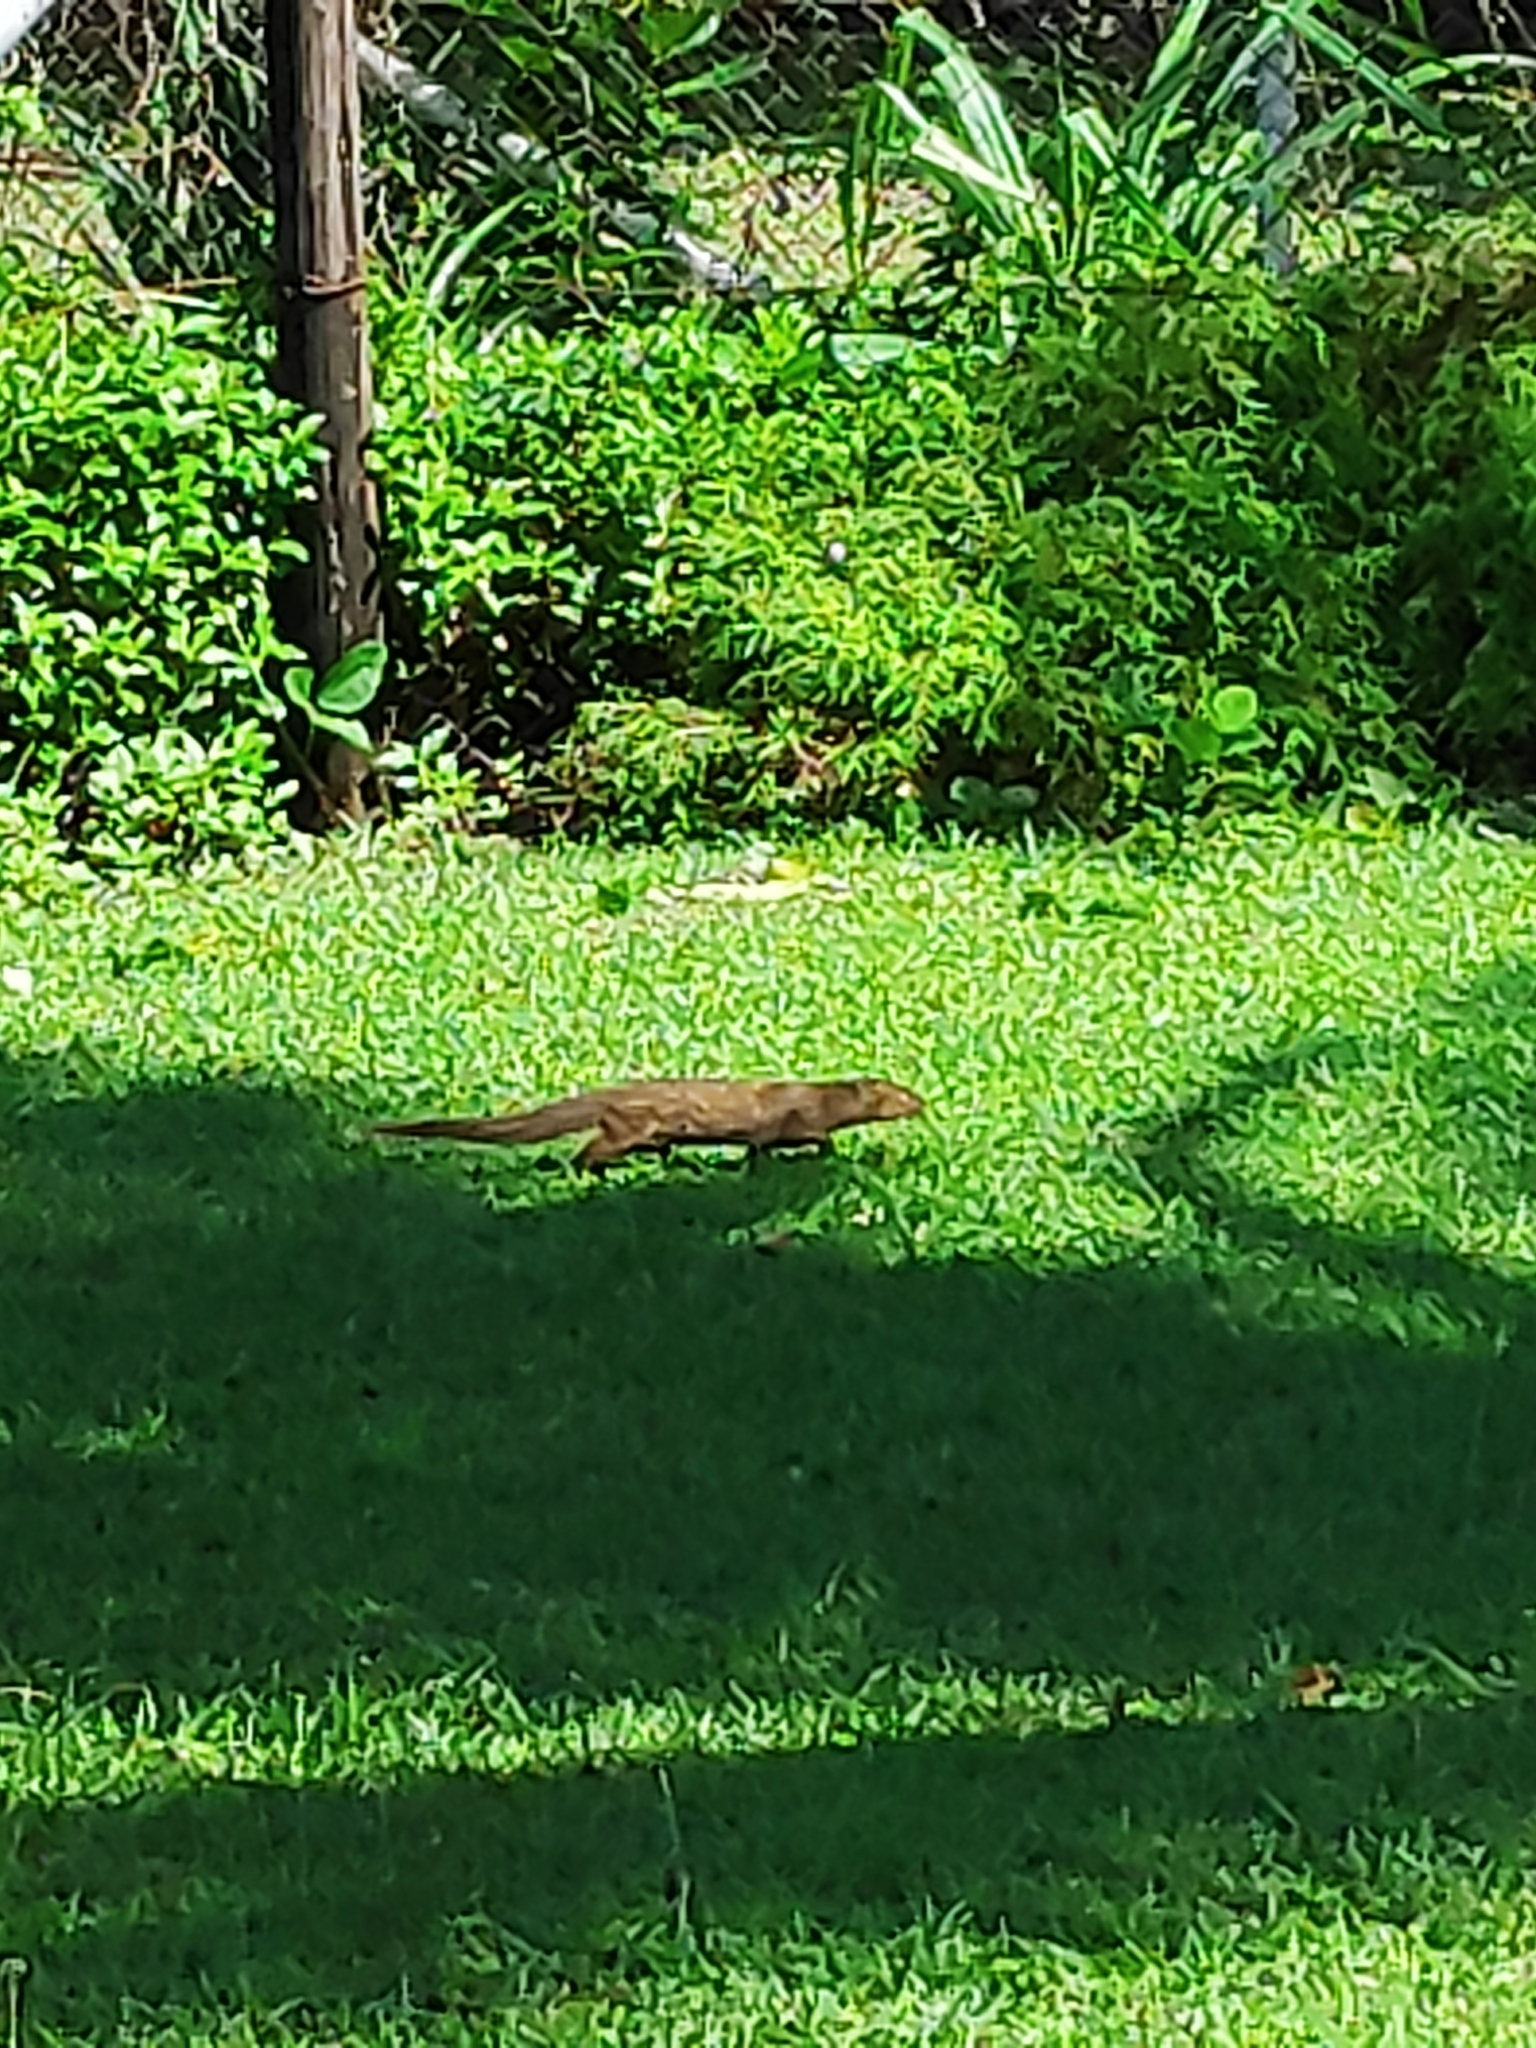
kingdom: Animalia
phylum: Chordata
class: Mammalia
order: Carnivora
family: Herpestidae
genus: Herpestes
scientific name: Herpestes javanicus
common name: Small asian mongoose
